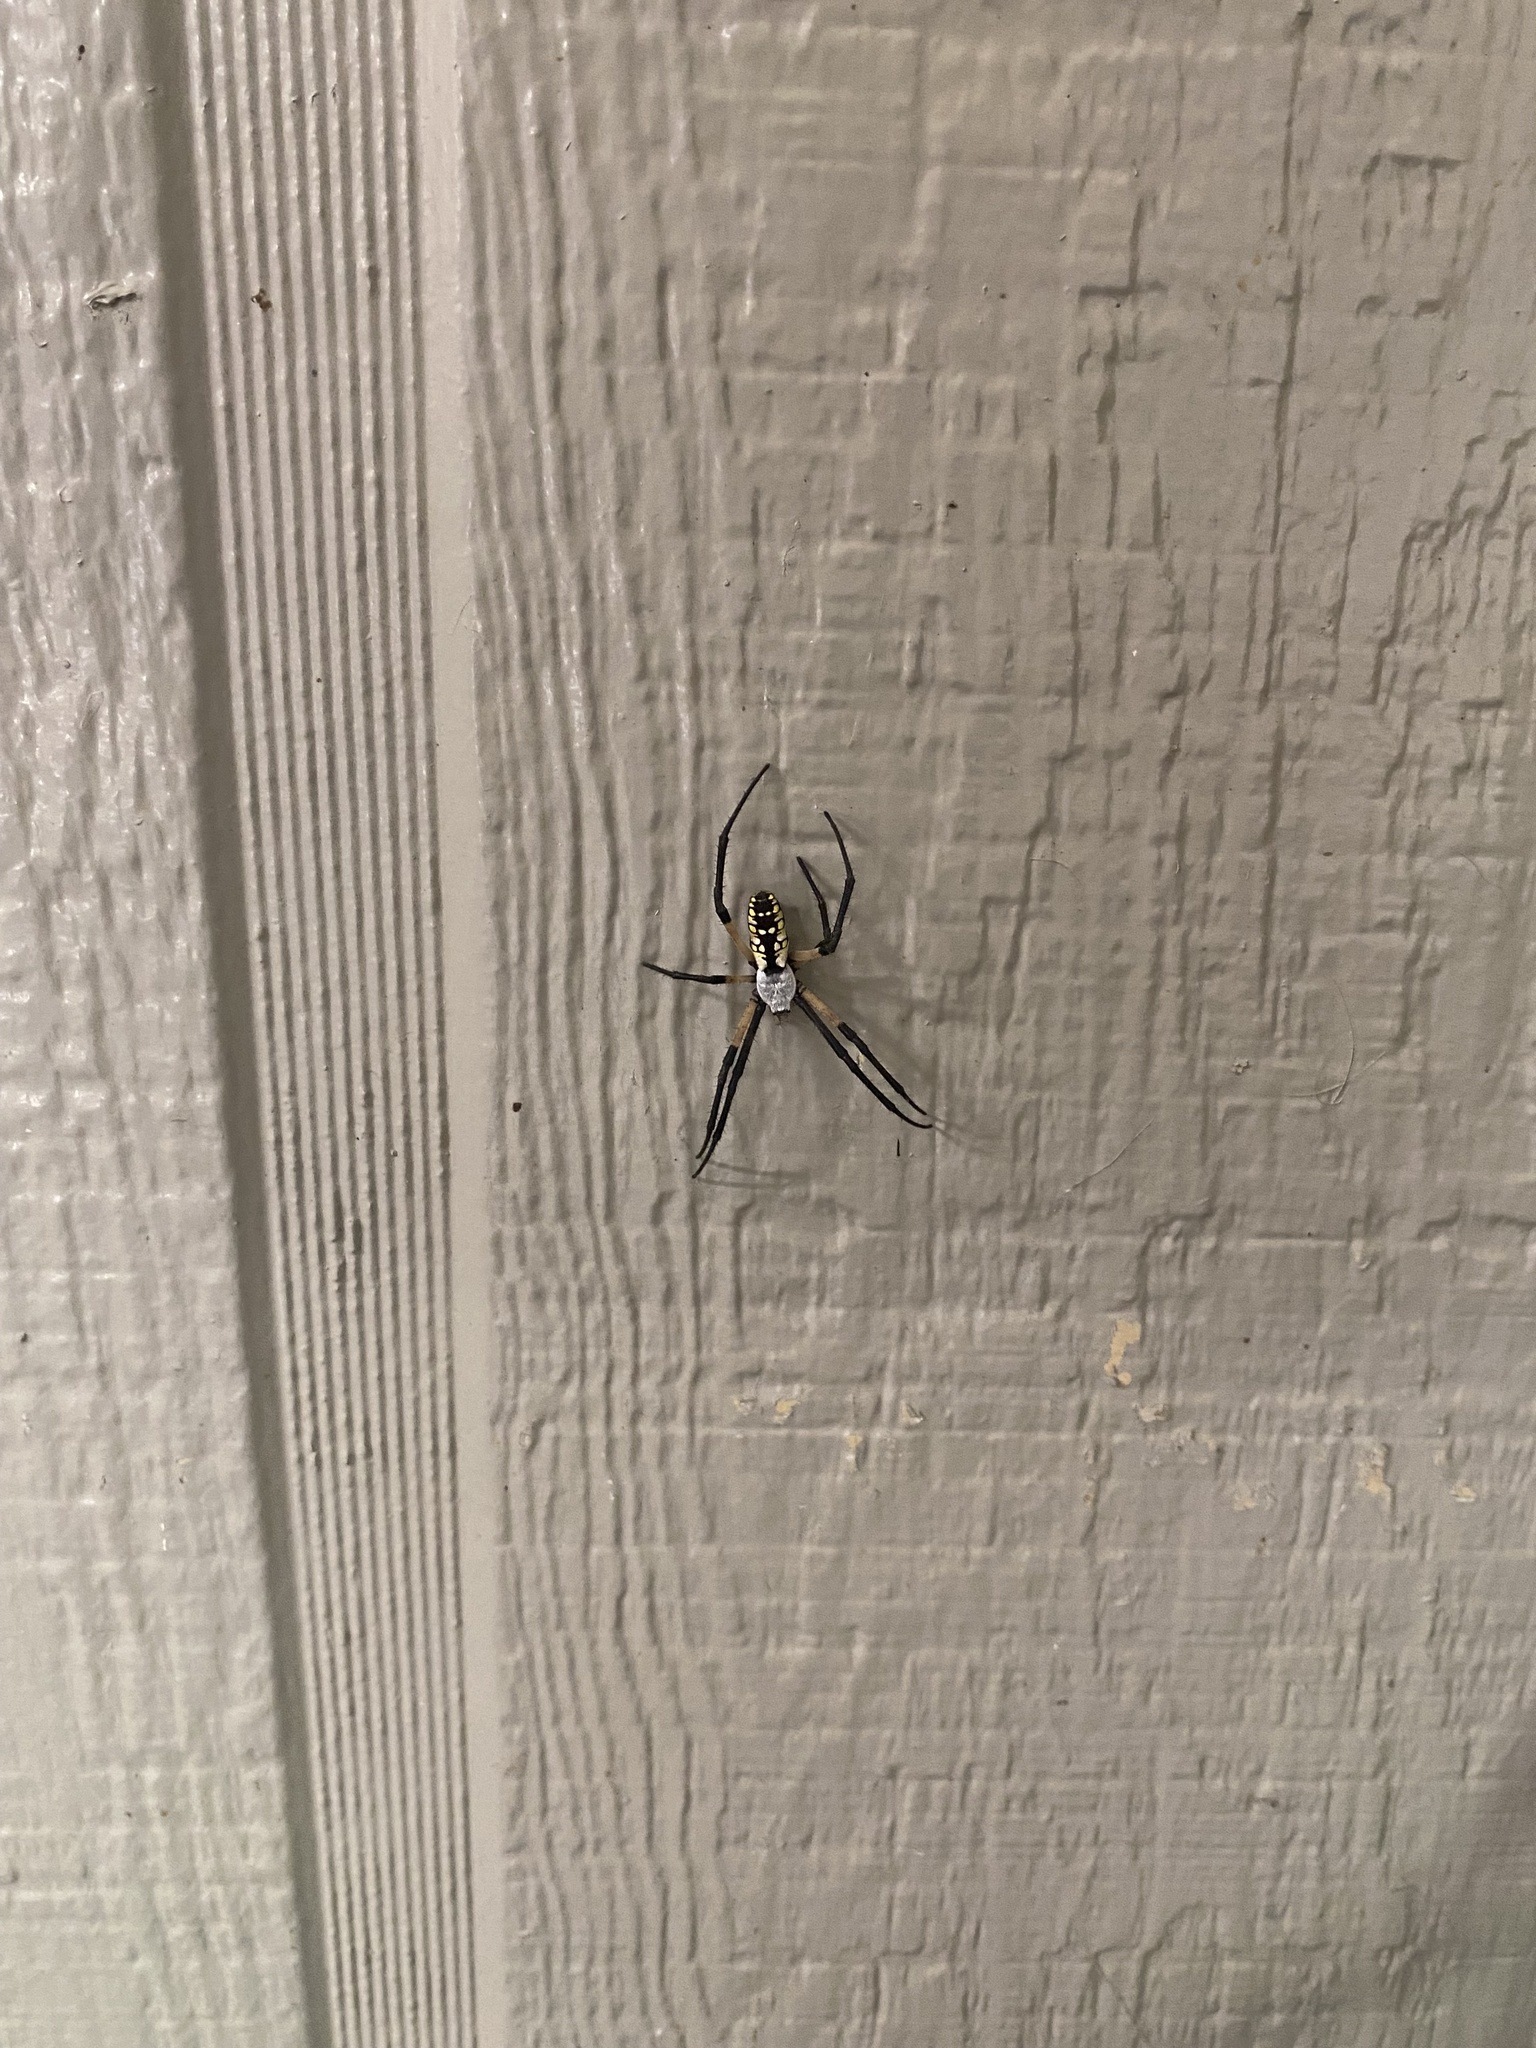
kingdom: Animalia
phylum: Arthropoda
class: Arachnida
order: Araneae
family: Araneidae
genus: Argiope
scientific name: Argiope aurantia
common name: Orb weavers
